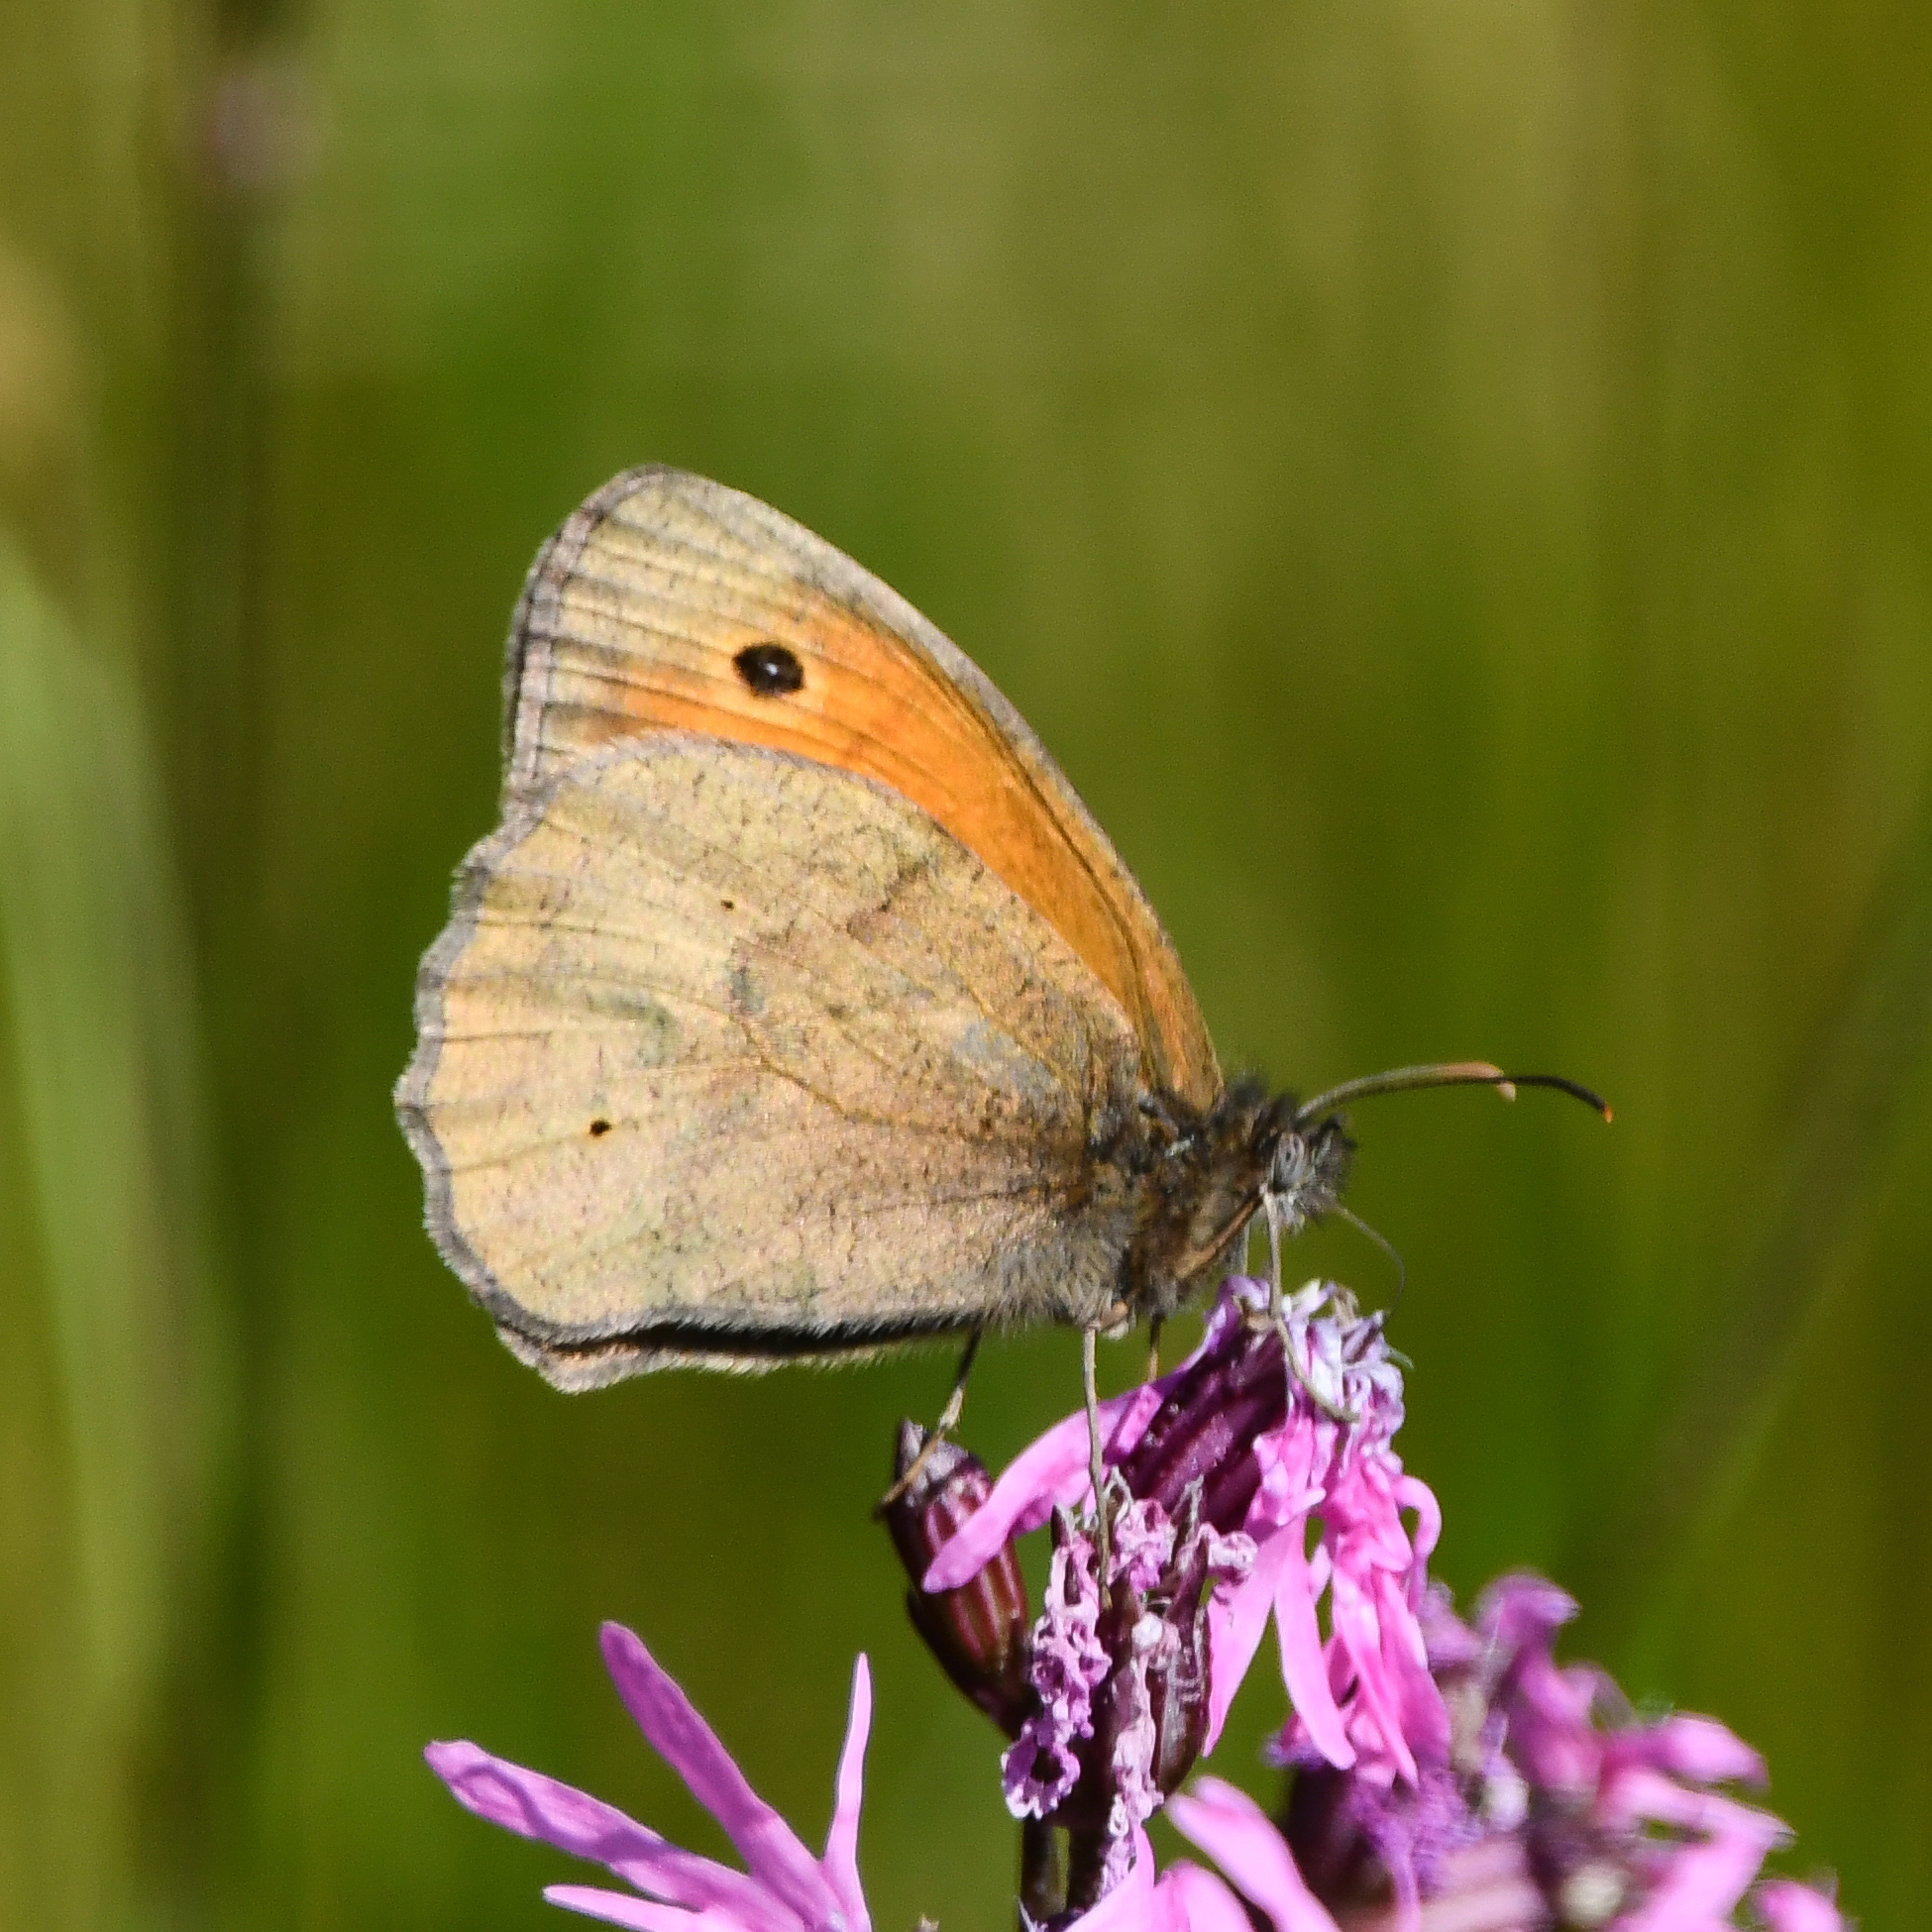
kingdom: Animalia
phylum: Arthropoda
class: Insecta
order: Lepidoptera
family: Nymphalidae
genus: Maniola
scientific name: Maniola jurtina
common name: Meadow brown
